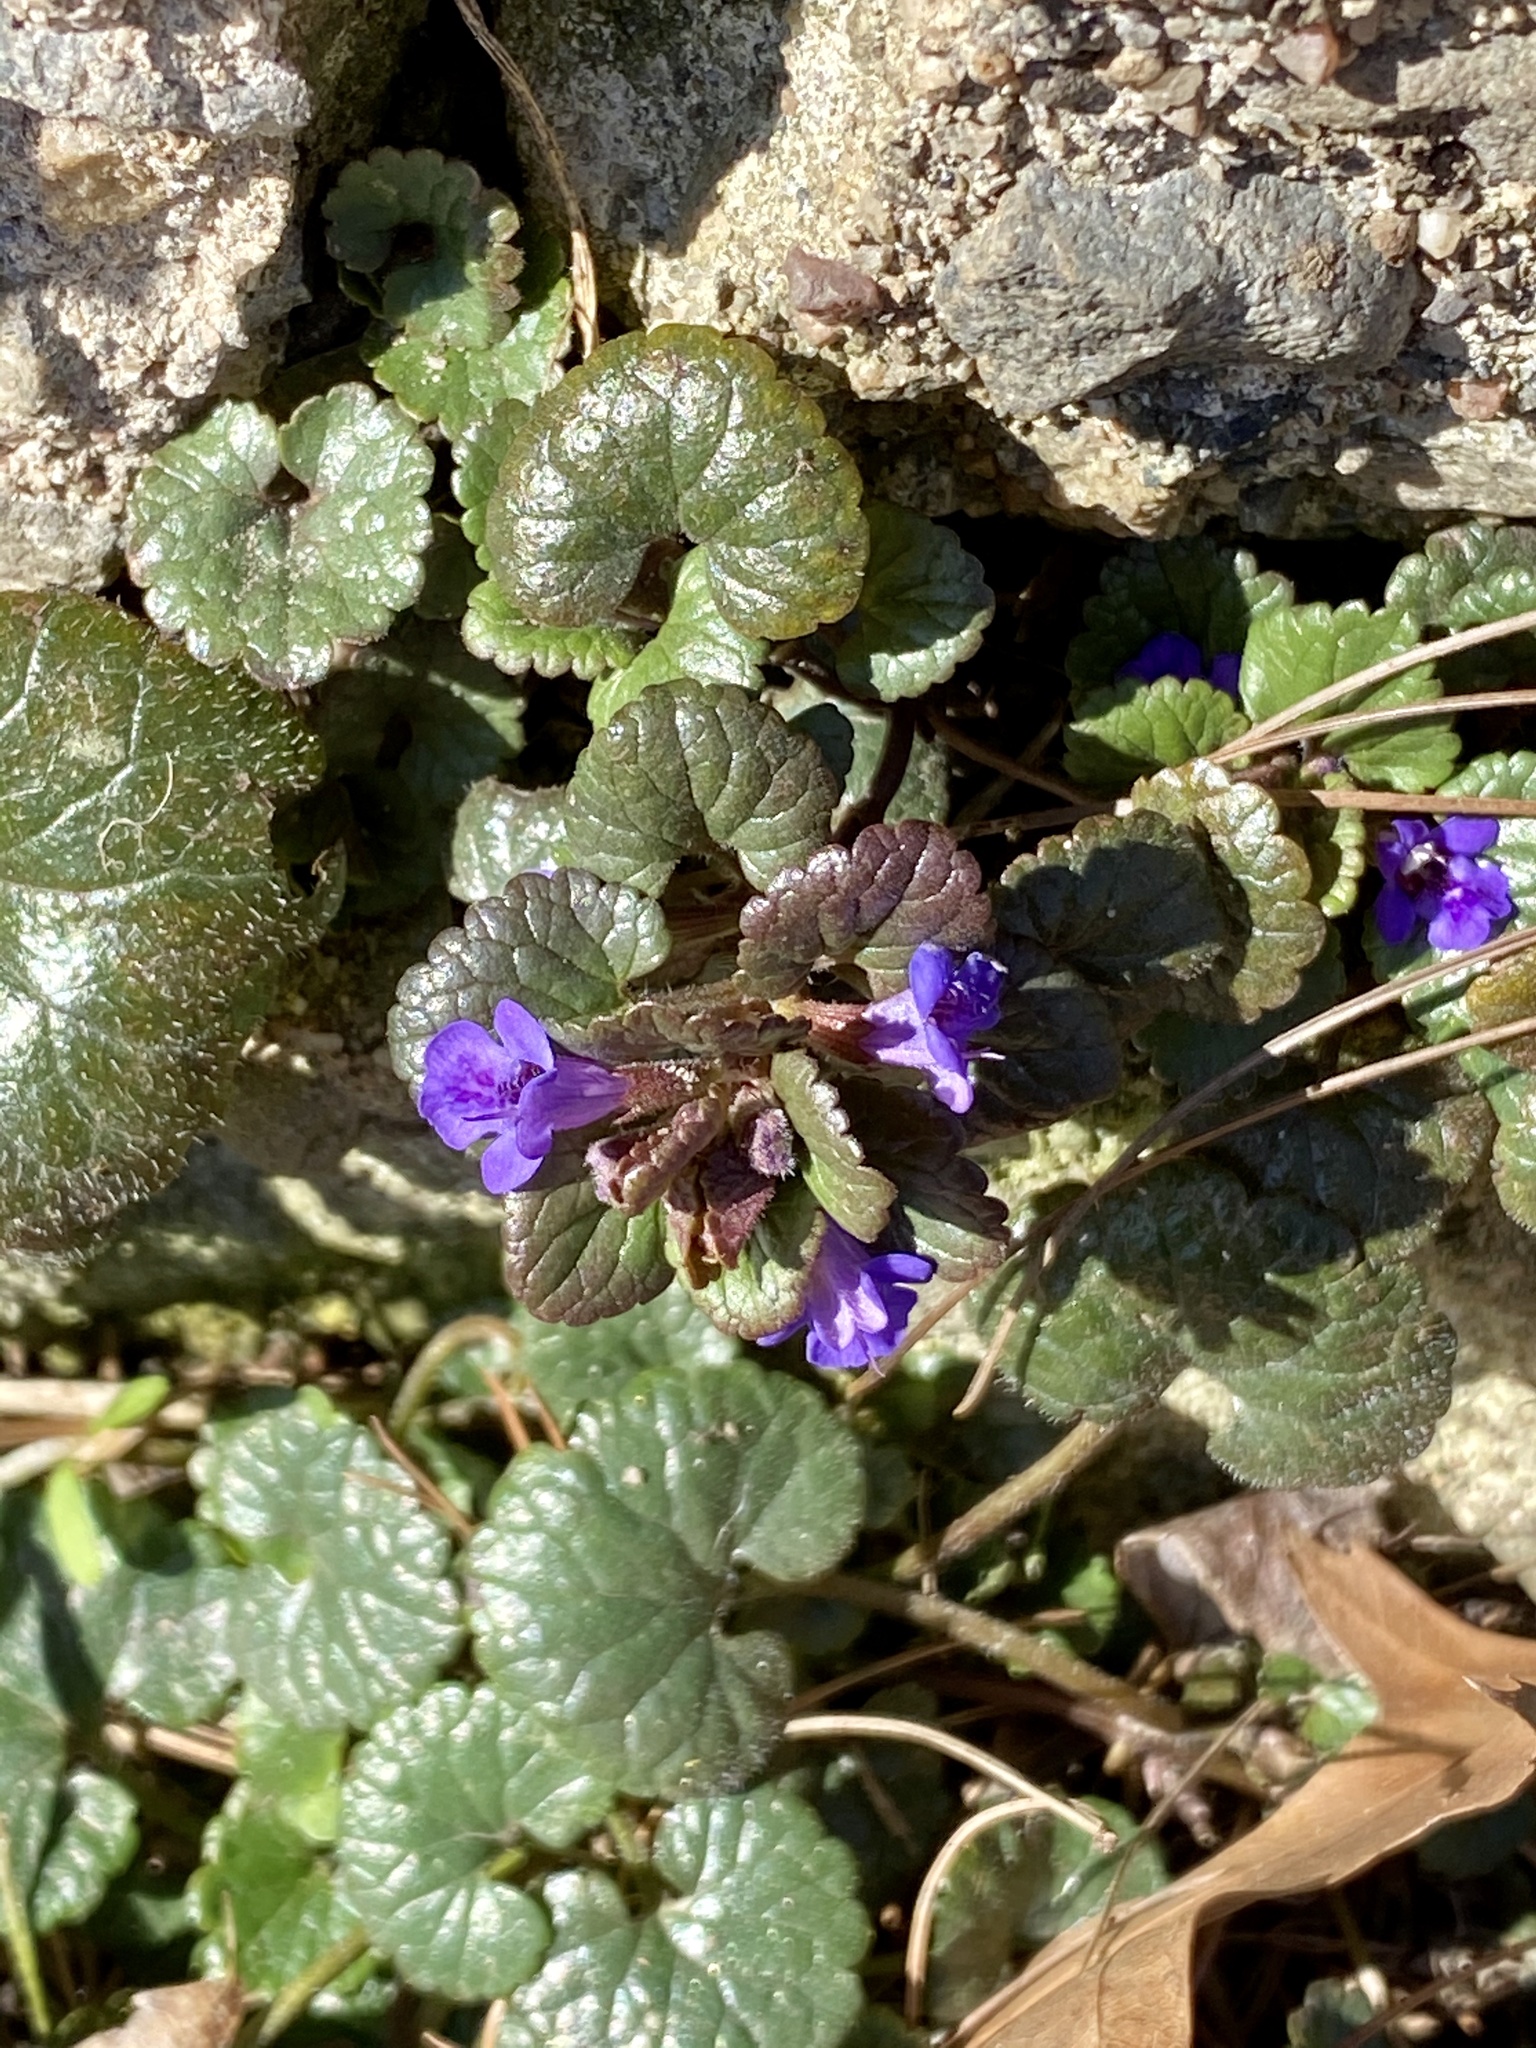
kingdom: Plantae
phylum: Tracheophyta
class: Magnoliopsida
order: Lamiales
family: Lamiaceae
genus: Glechoma
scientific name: Glechoma hederacea
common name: Ground ivy
